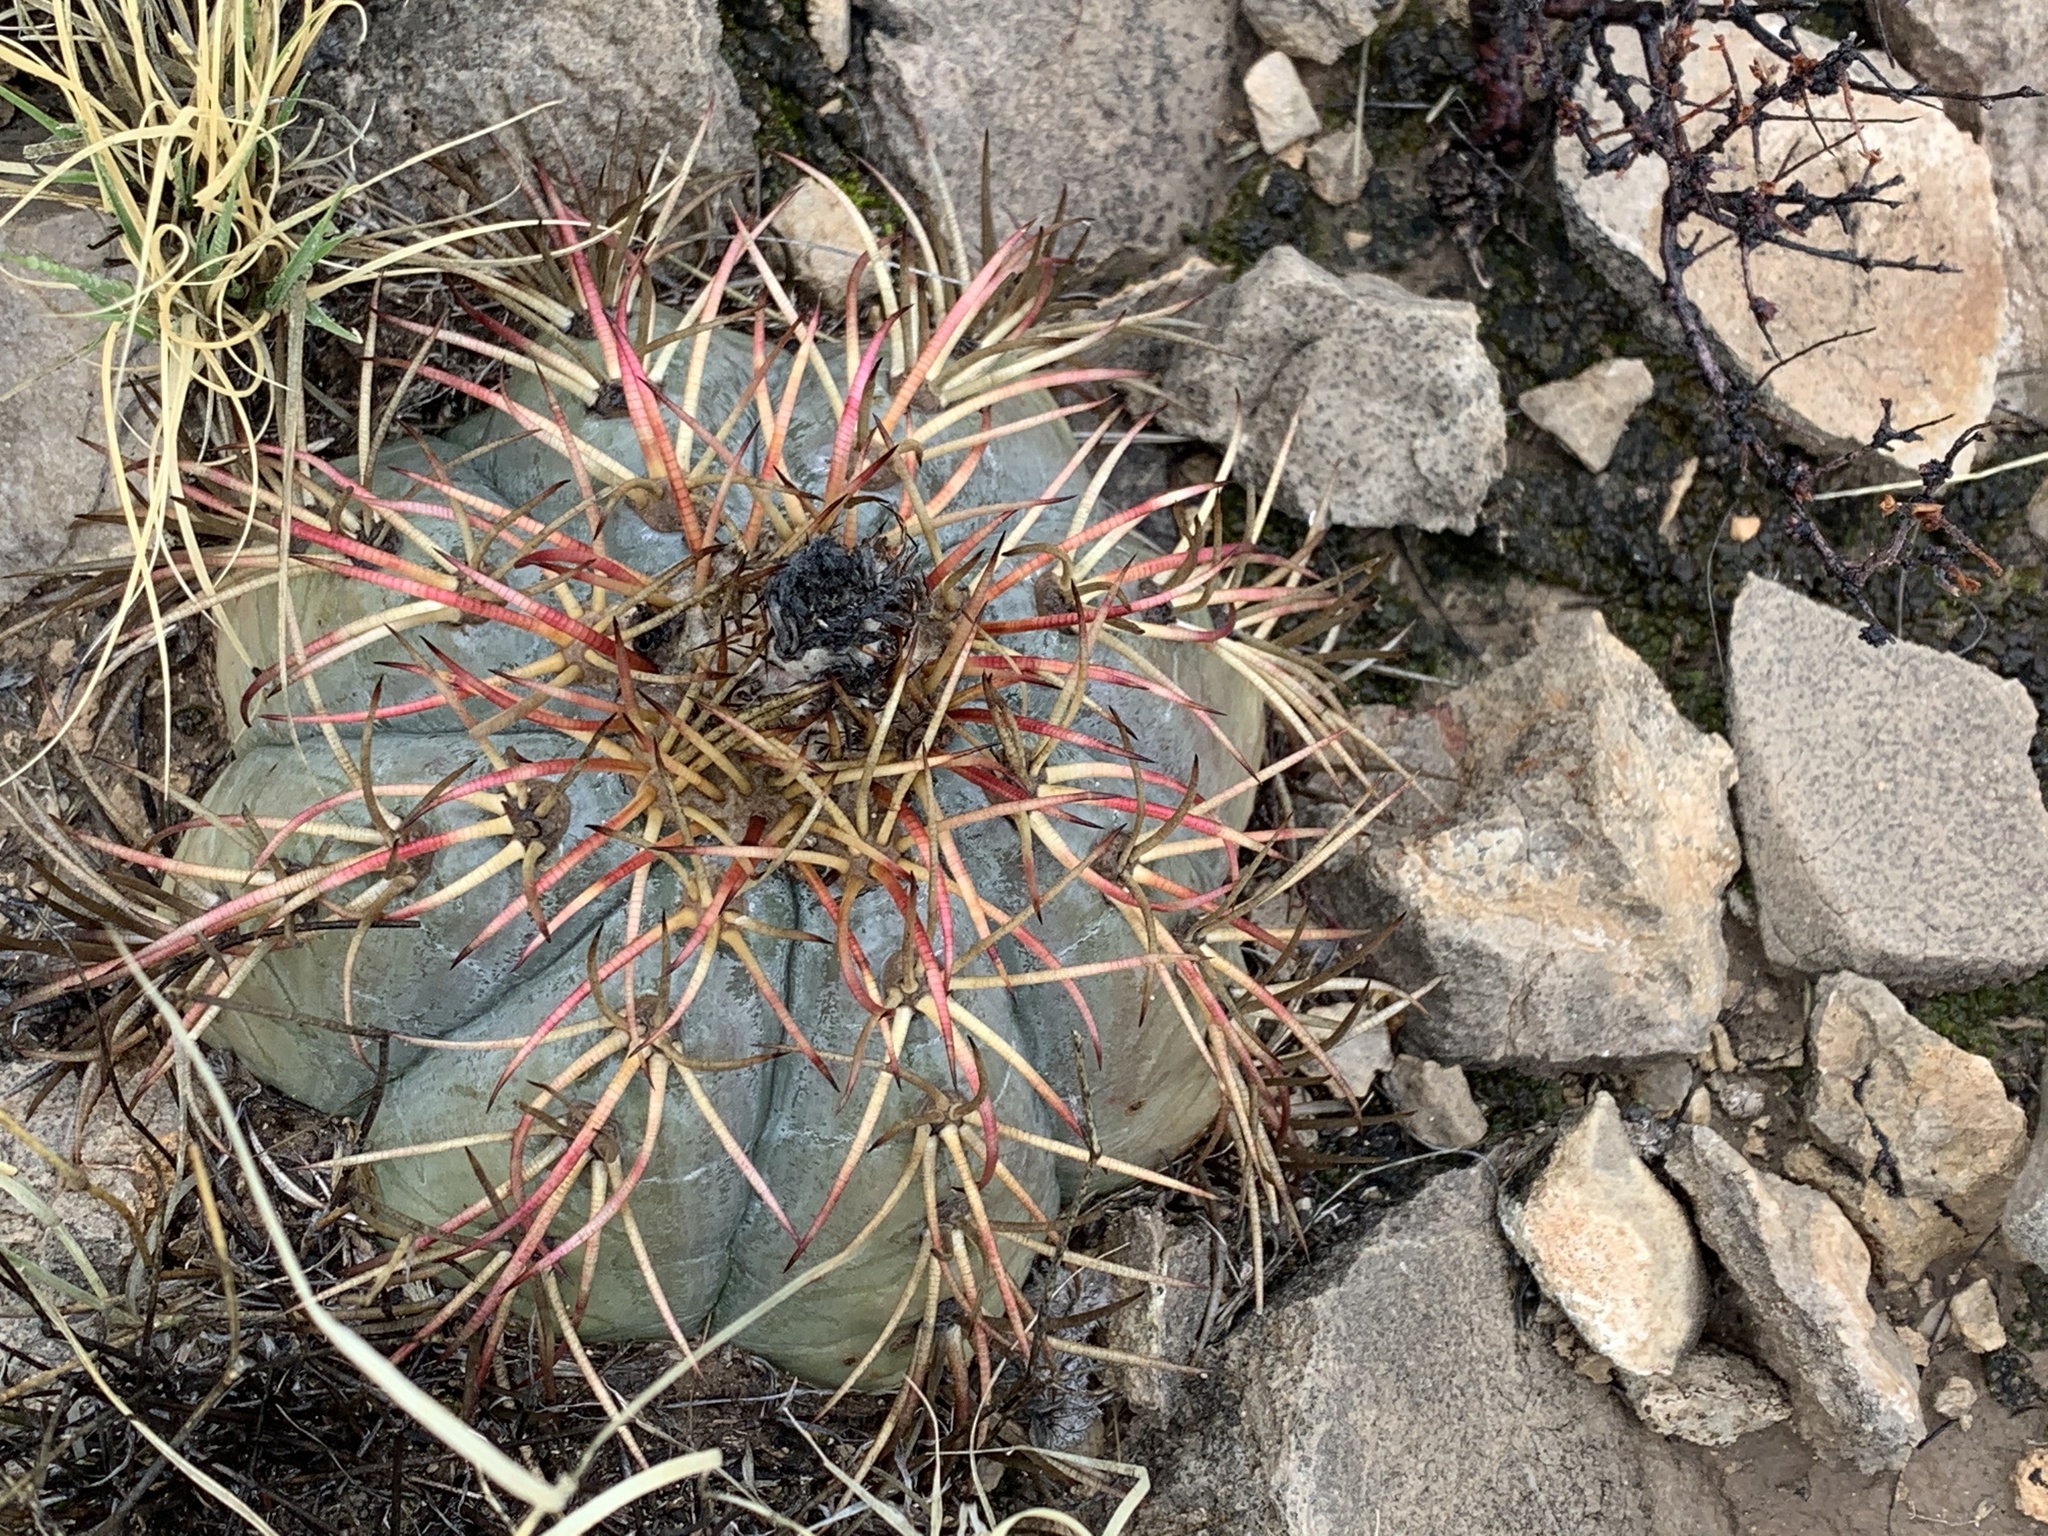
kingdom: Plantae
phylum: Tracheophyta
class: Magnoliopsida
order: Caryophyllales
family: Cactaceae
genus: Echinocactus
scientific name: Echinocactus horizonthalonius
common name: Devilshead
